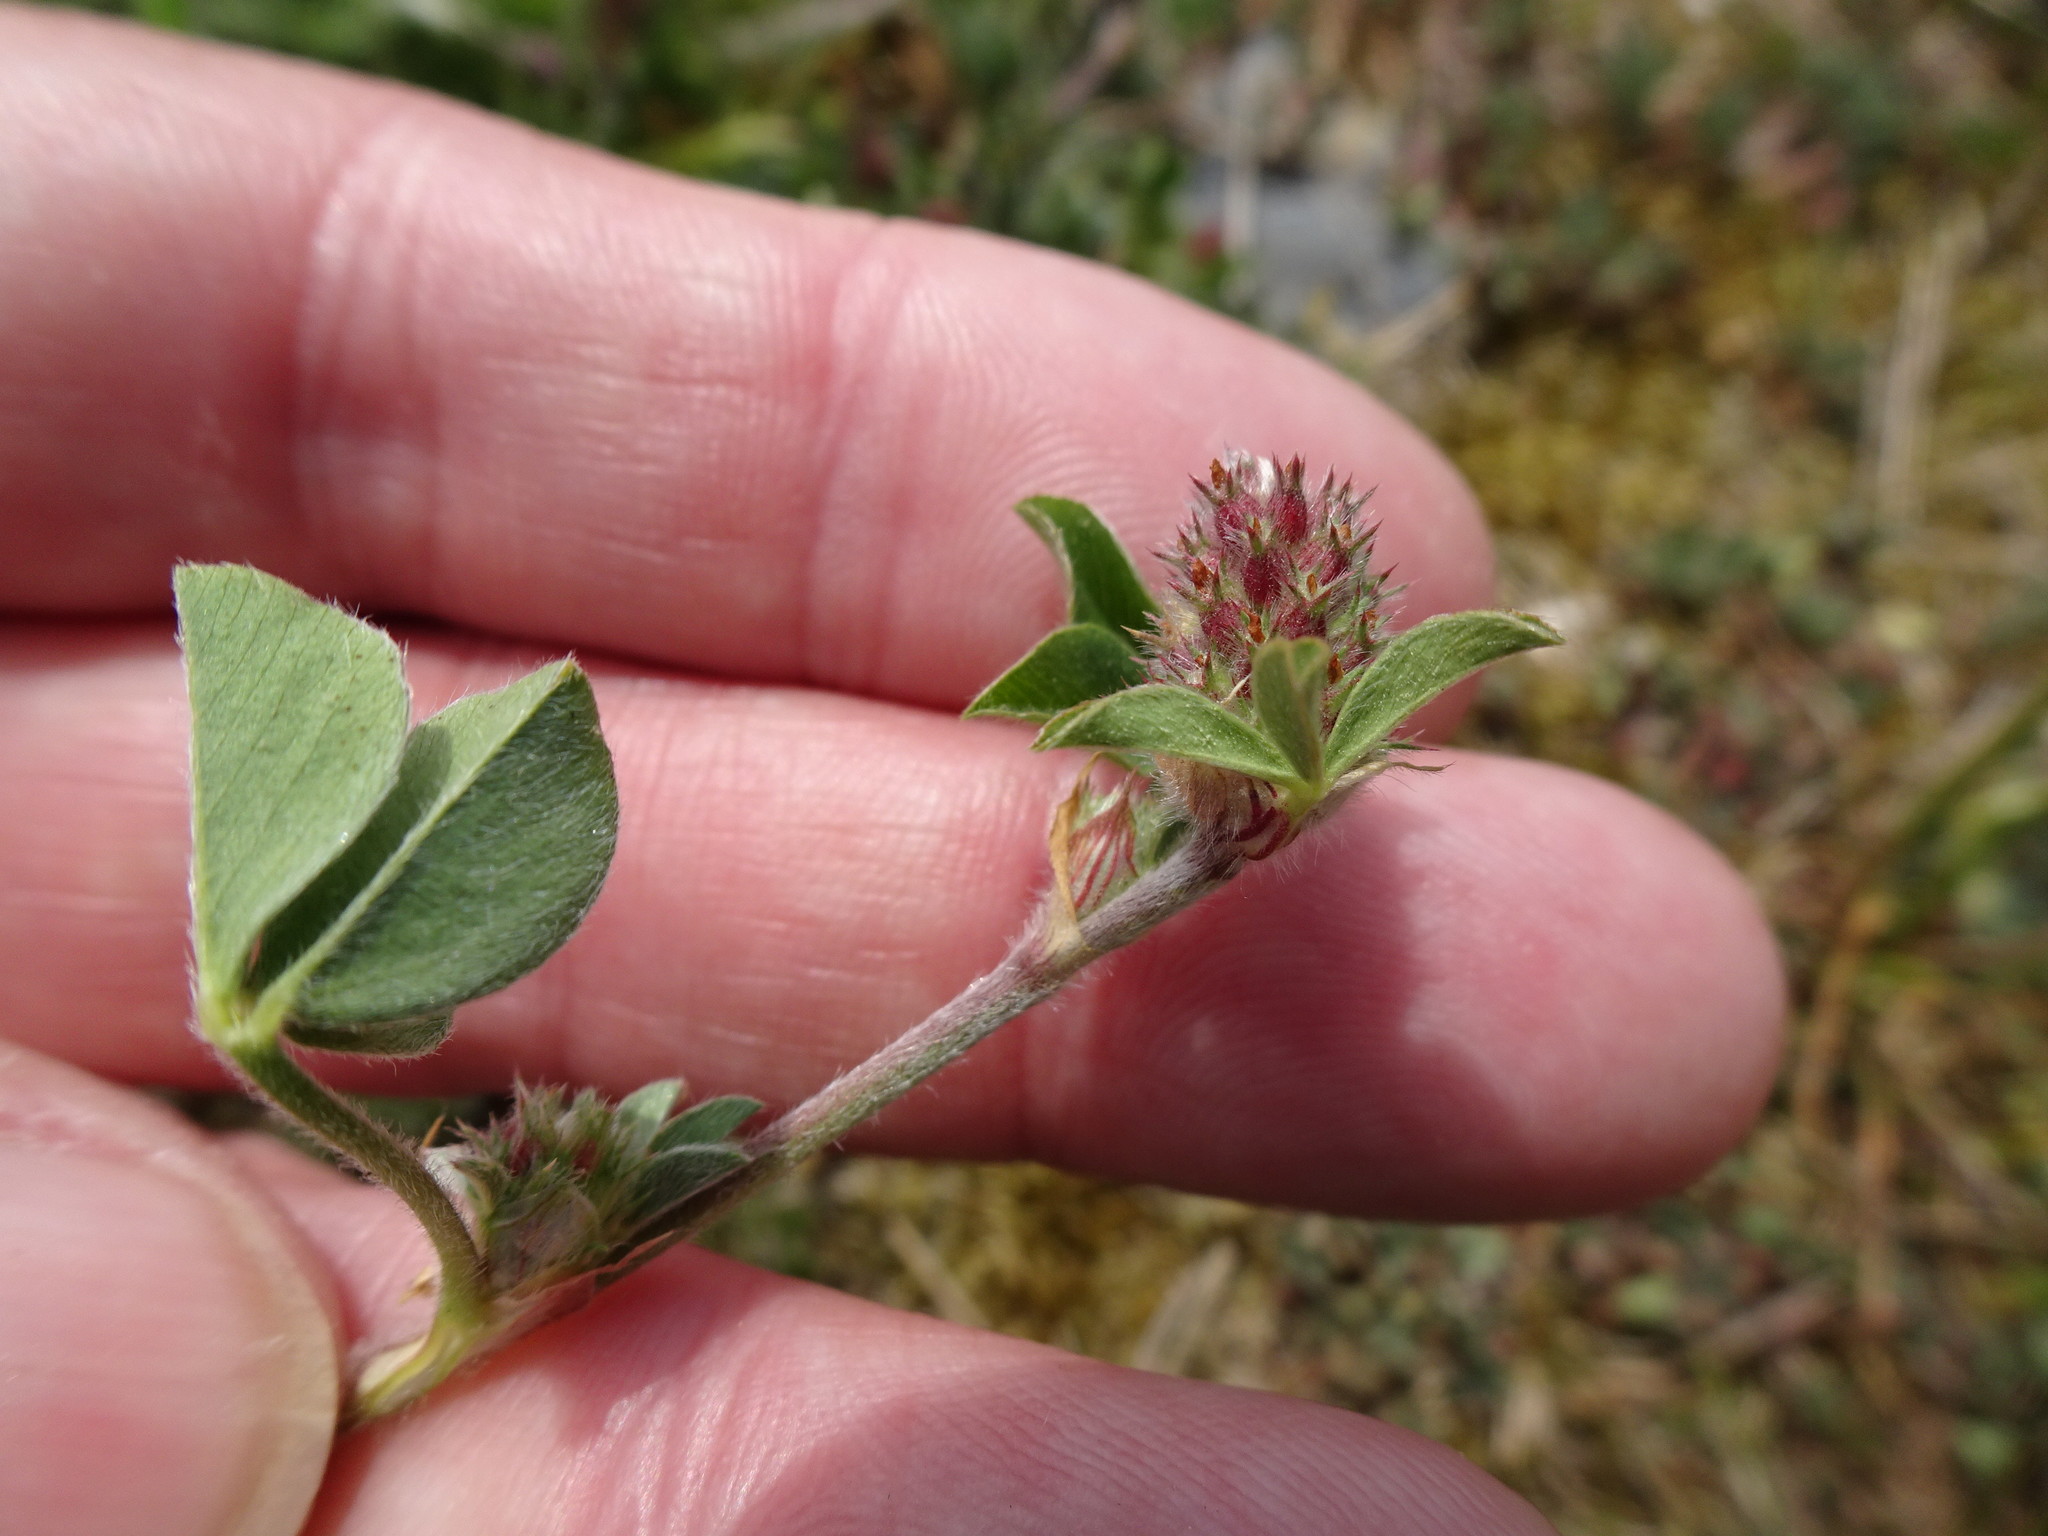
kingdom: Plantae
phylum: Tracheophyta
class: Magnoliopsida
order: Fabales
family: Fabaceae
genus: Trifolium
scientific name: Trifolium striatum
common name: Knotted clover
